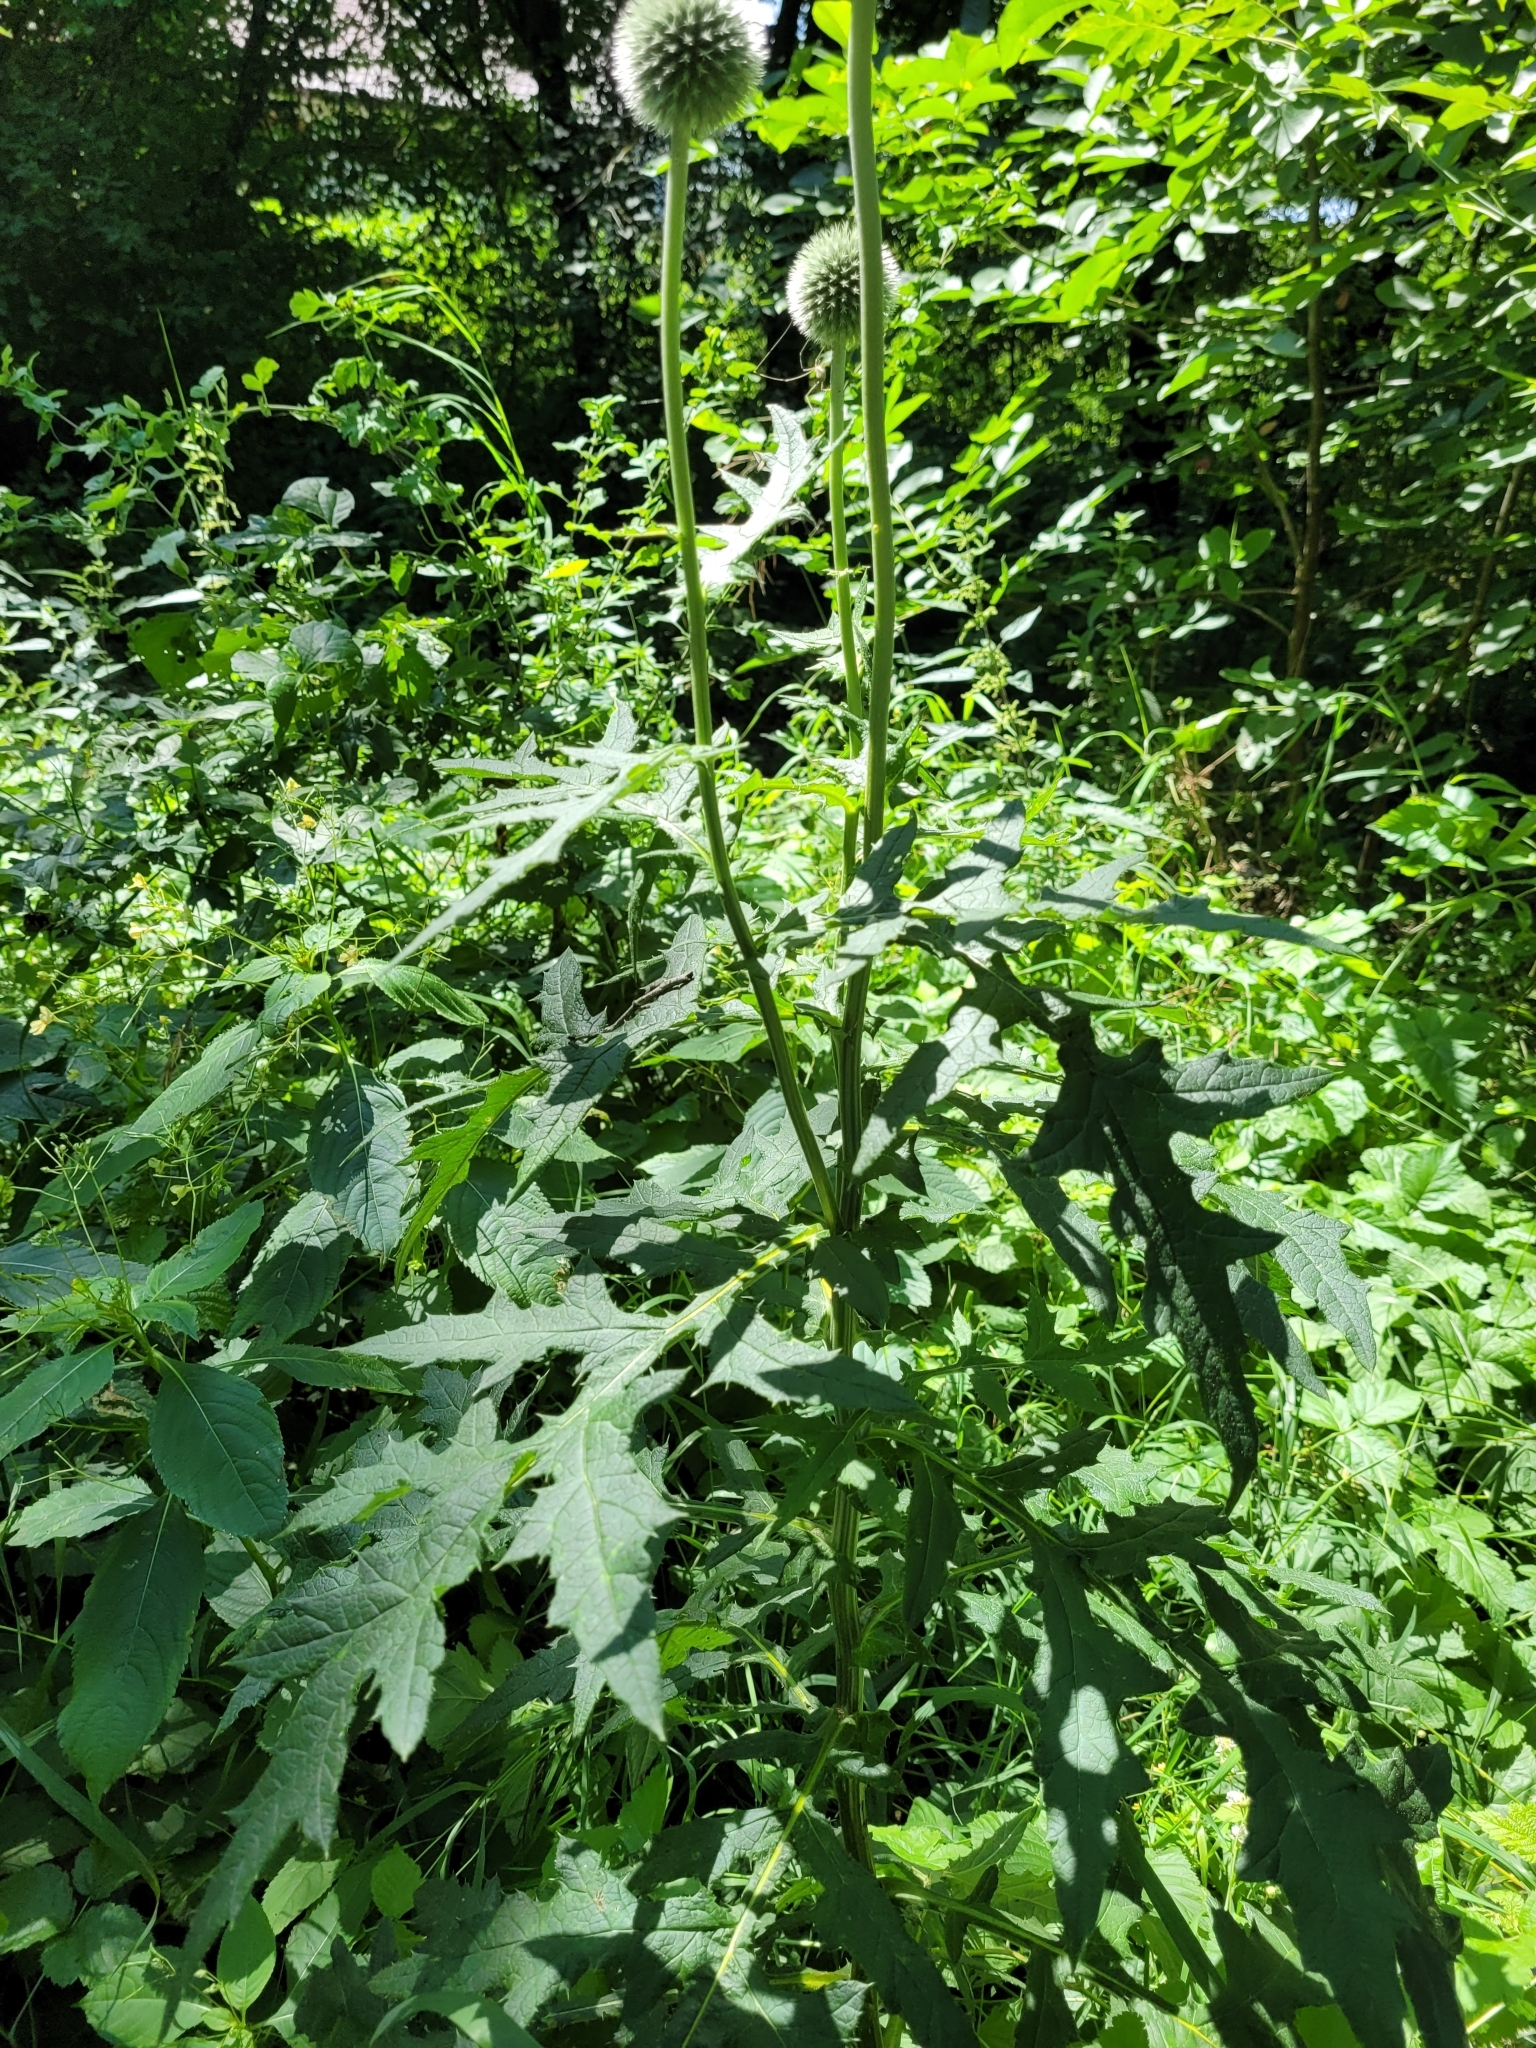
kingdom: Plantae
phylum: Tracheophyta
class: Magnoliopsida
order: Asterales
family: Asteraceae
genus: Echinops
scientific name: Echinops sphaerocephalus
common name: Glandular globe-thistle
